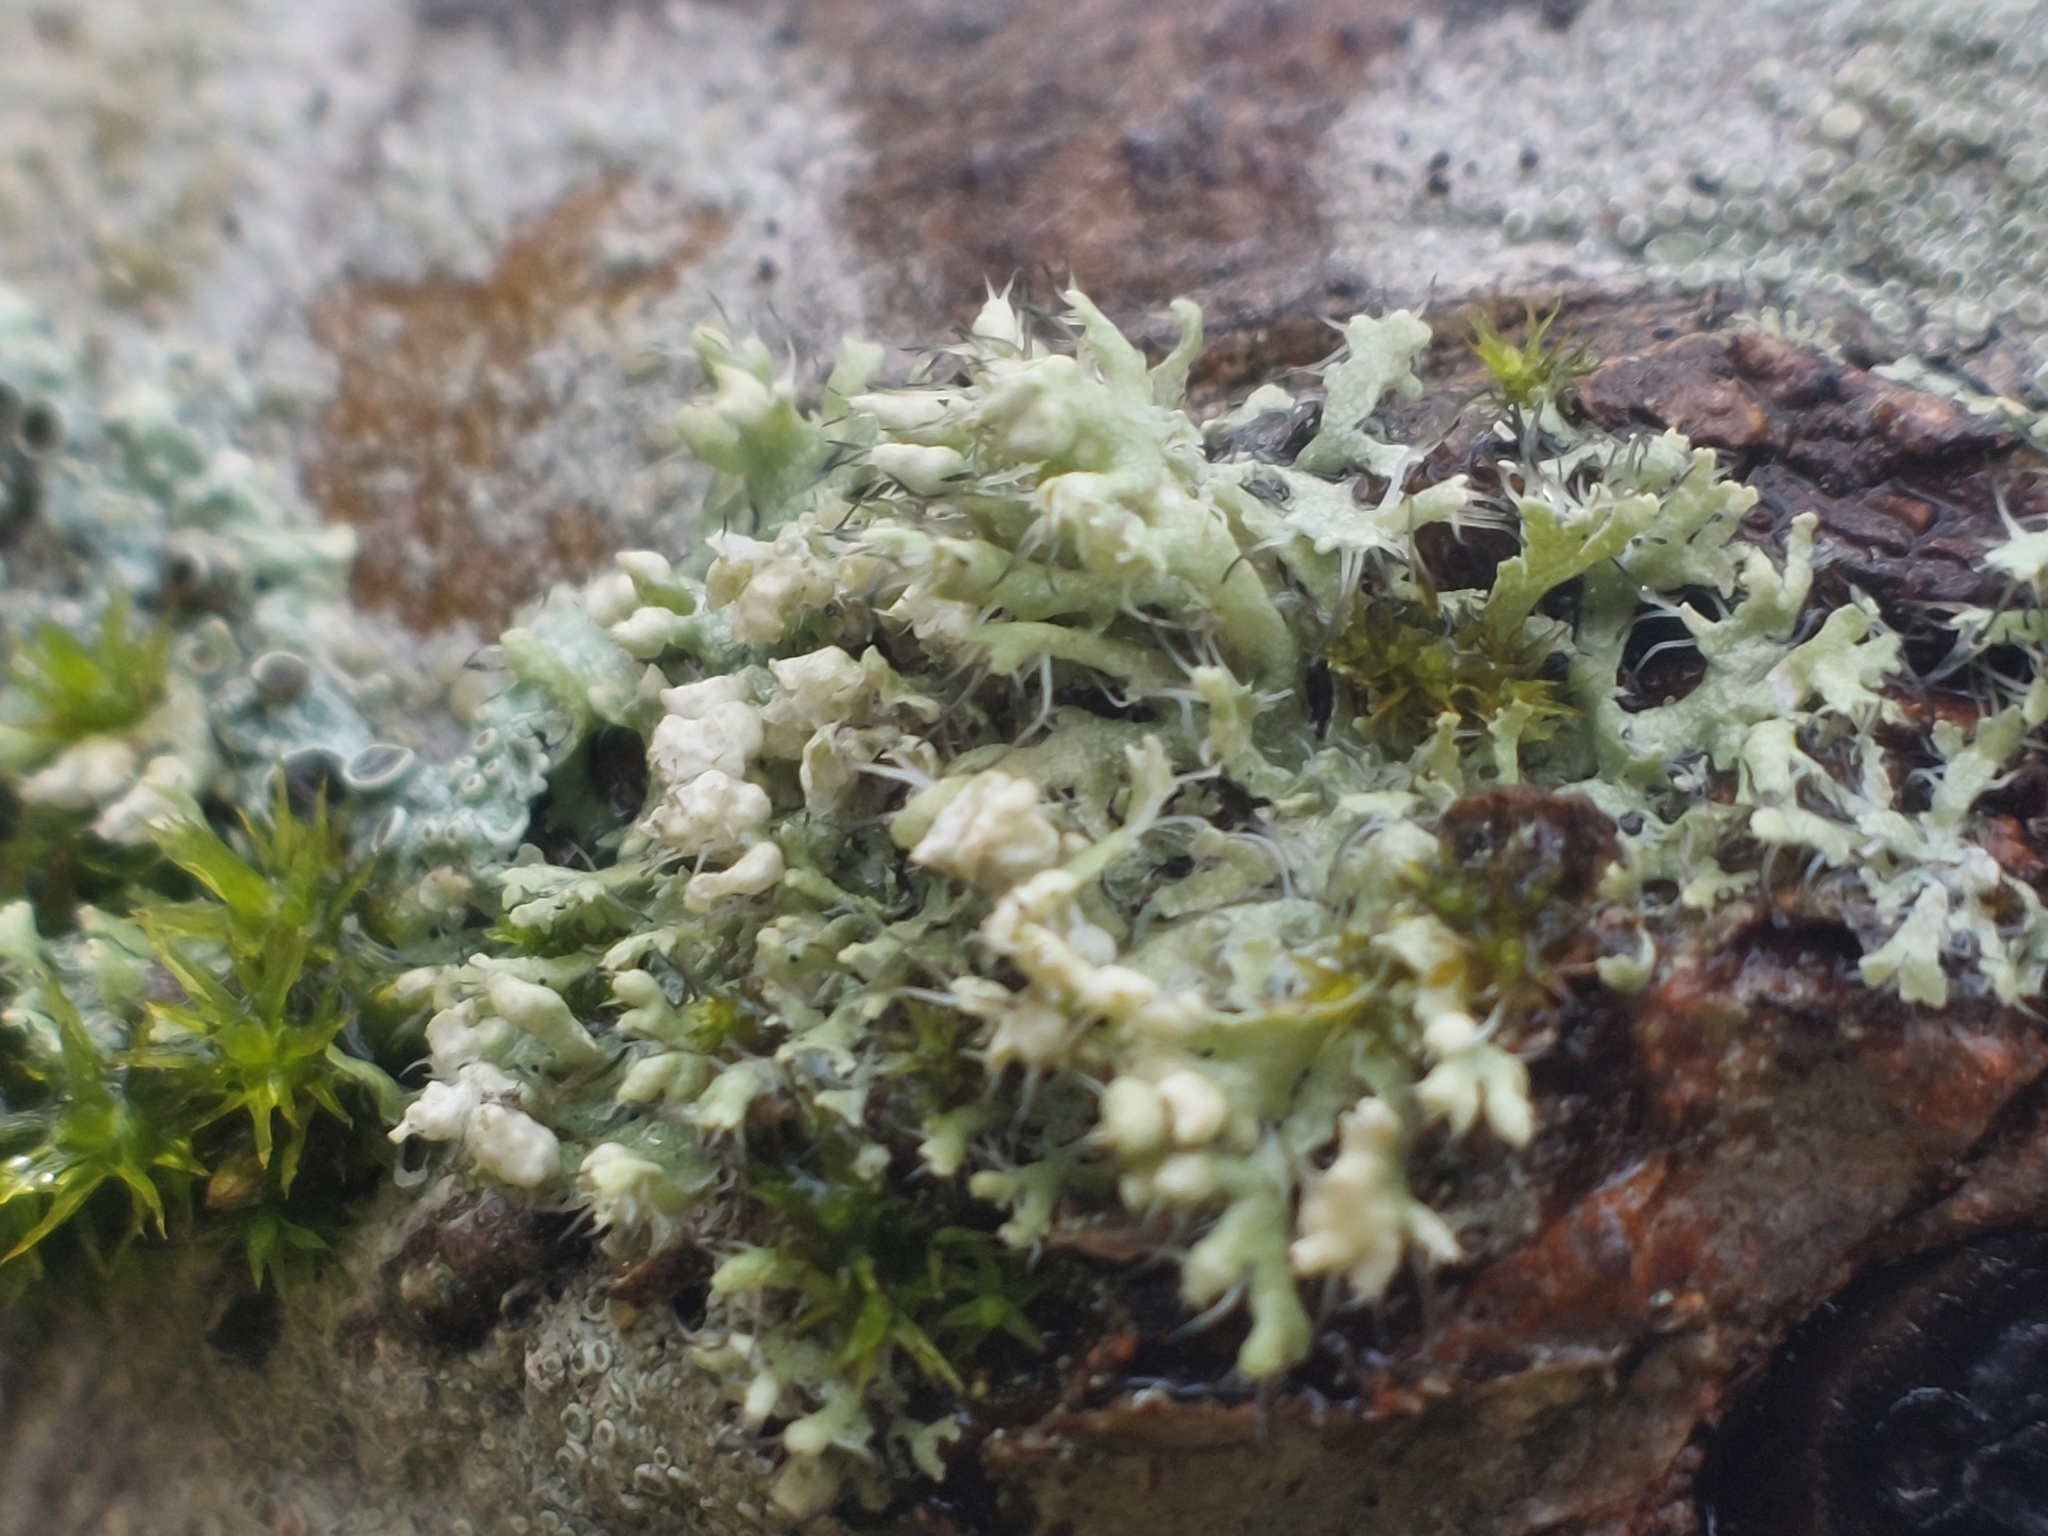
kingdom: Fungi
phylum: Ascomycota
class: Lecanoromycetes
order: Caliciales
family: Physciaceae
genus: Physcia
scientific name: Physcia adscendens
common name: Hooded rosette lichen
